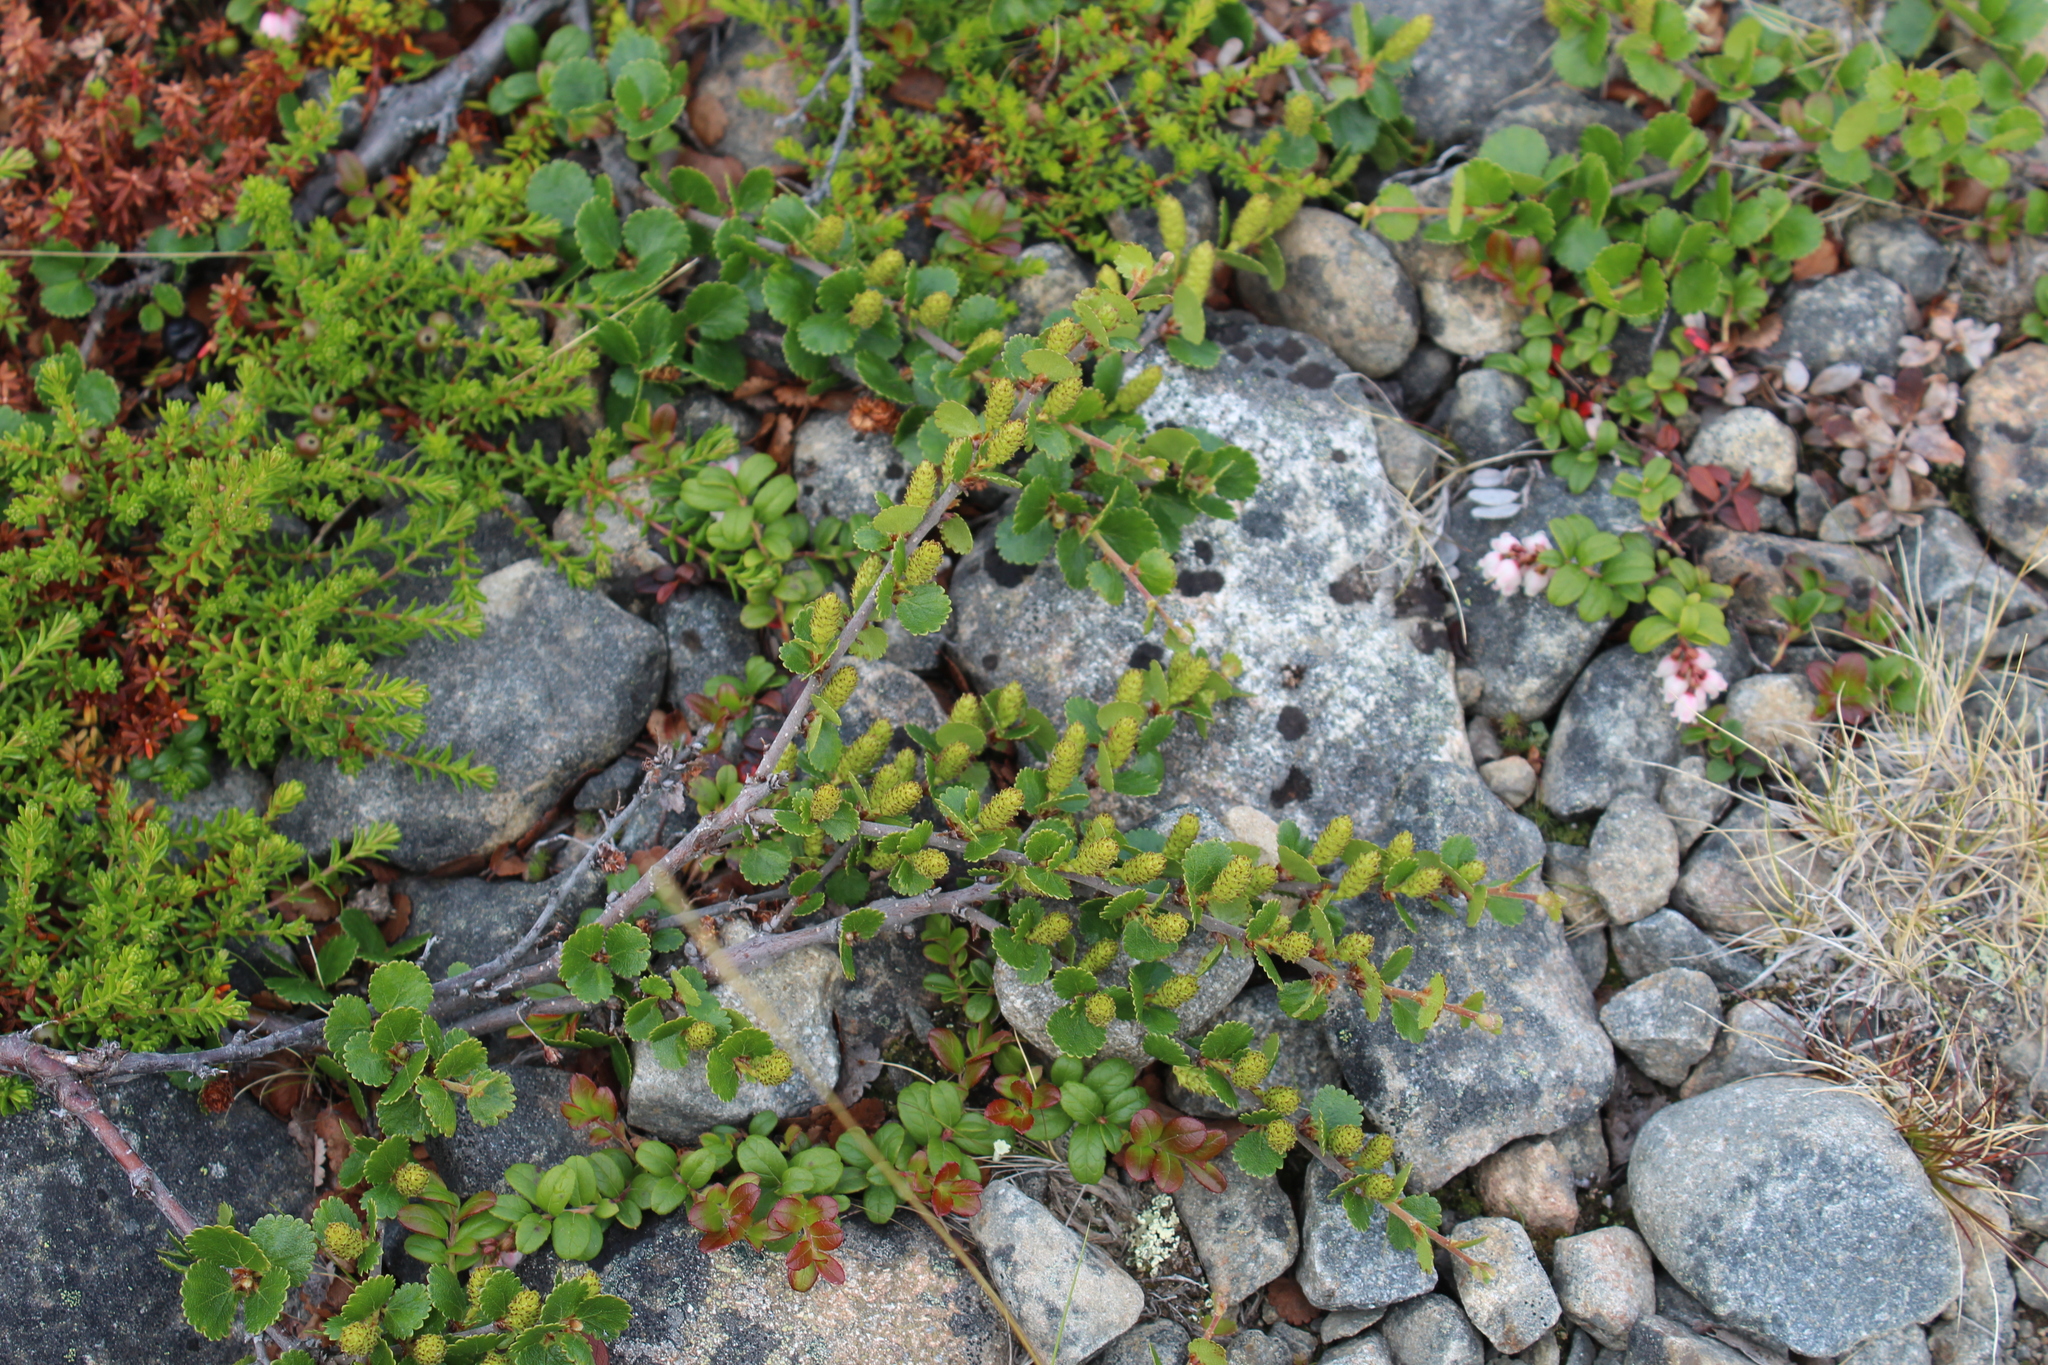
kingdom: Plantae
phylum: Tracheophyta
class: Magnoliopsida
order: Fagales
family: Betulaceae
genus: Betula
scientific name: Betula nana
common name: Arctic dwarf birch
